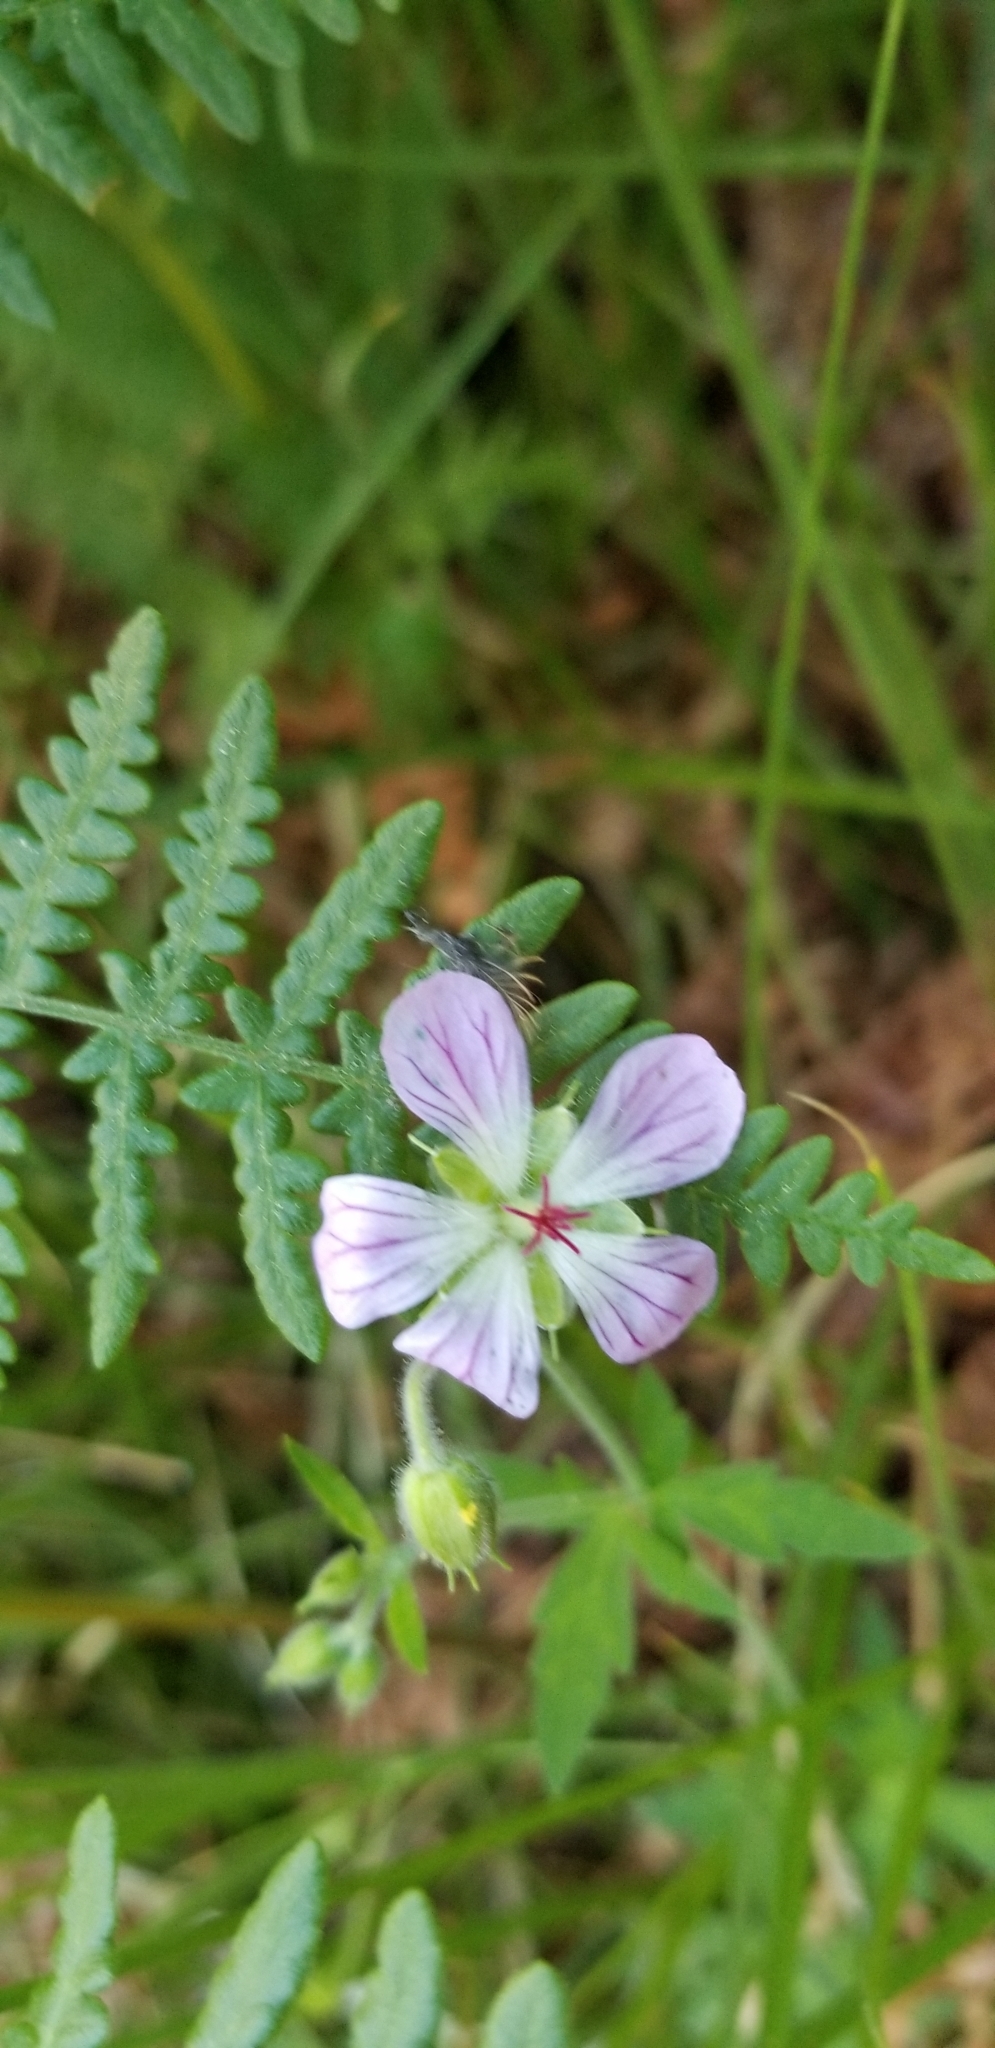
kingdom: Plantae
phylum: Tracheophyta
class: Magnoliopsida
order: Geraniales
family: Geraniaceae
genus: Geranium
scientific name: Geranium californicum
